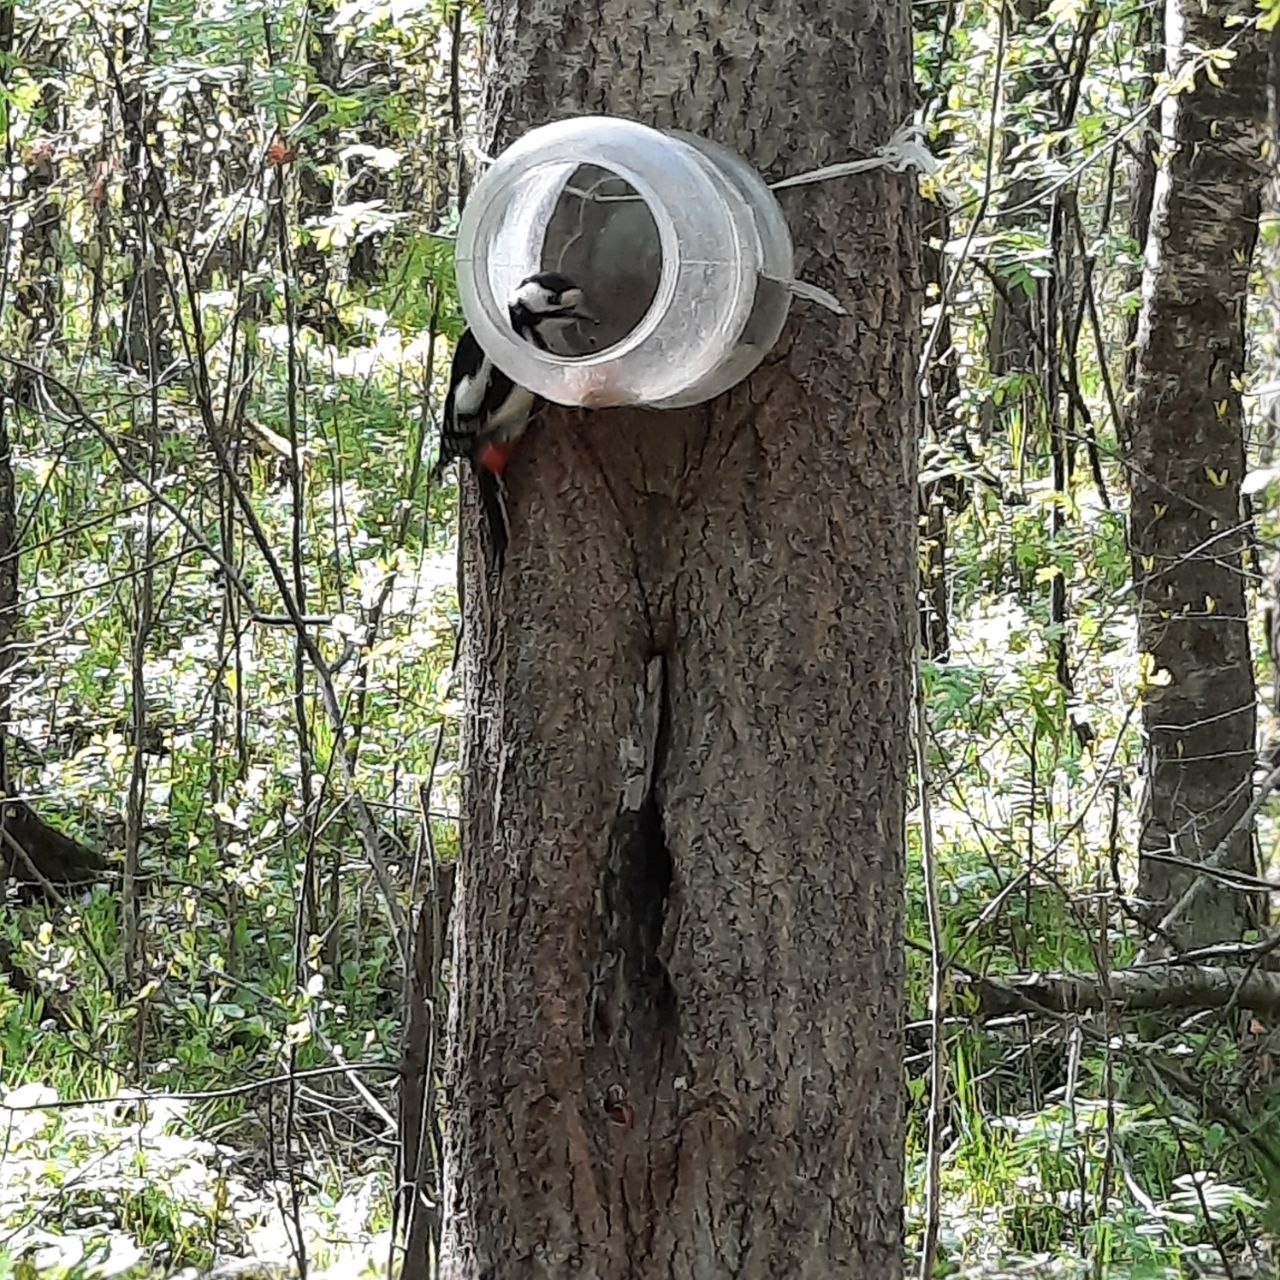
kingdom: Animalia
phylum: Chordata
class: Aves
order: Piciformes
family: Picidae
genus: Dendrocopos
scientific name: Dendrocopos major
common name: Great spotted woodpecker
